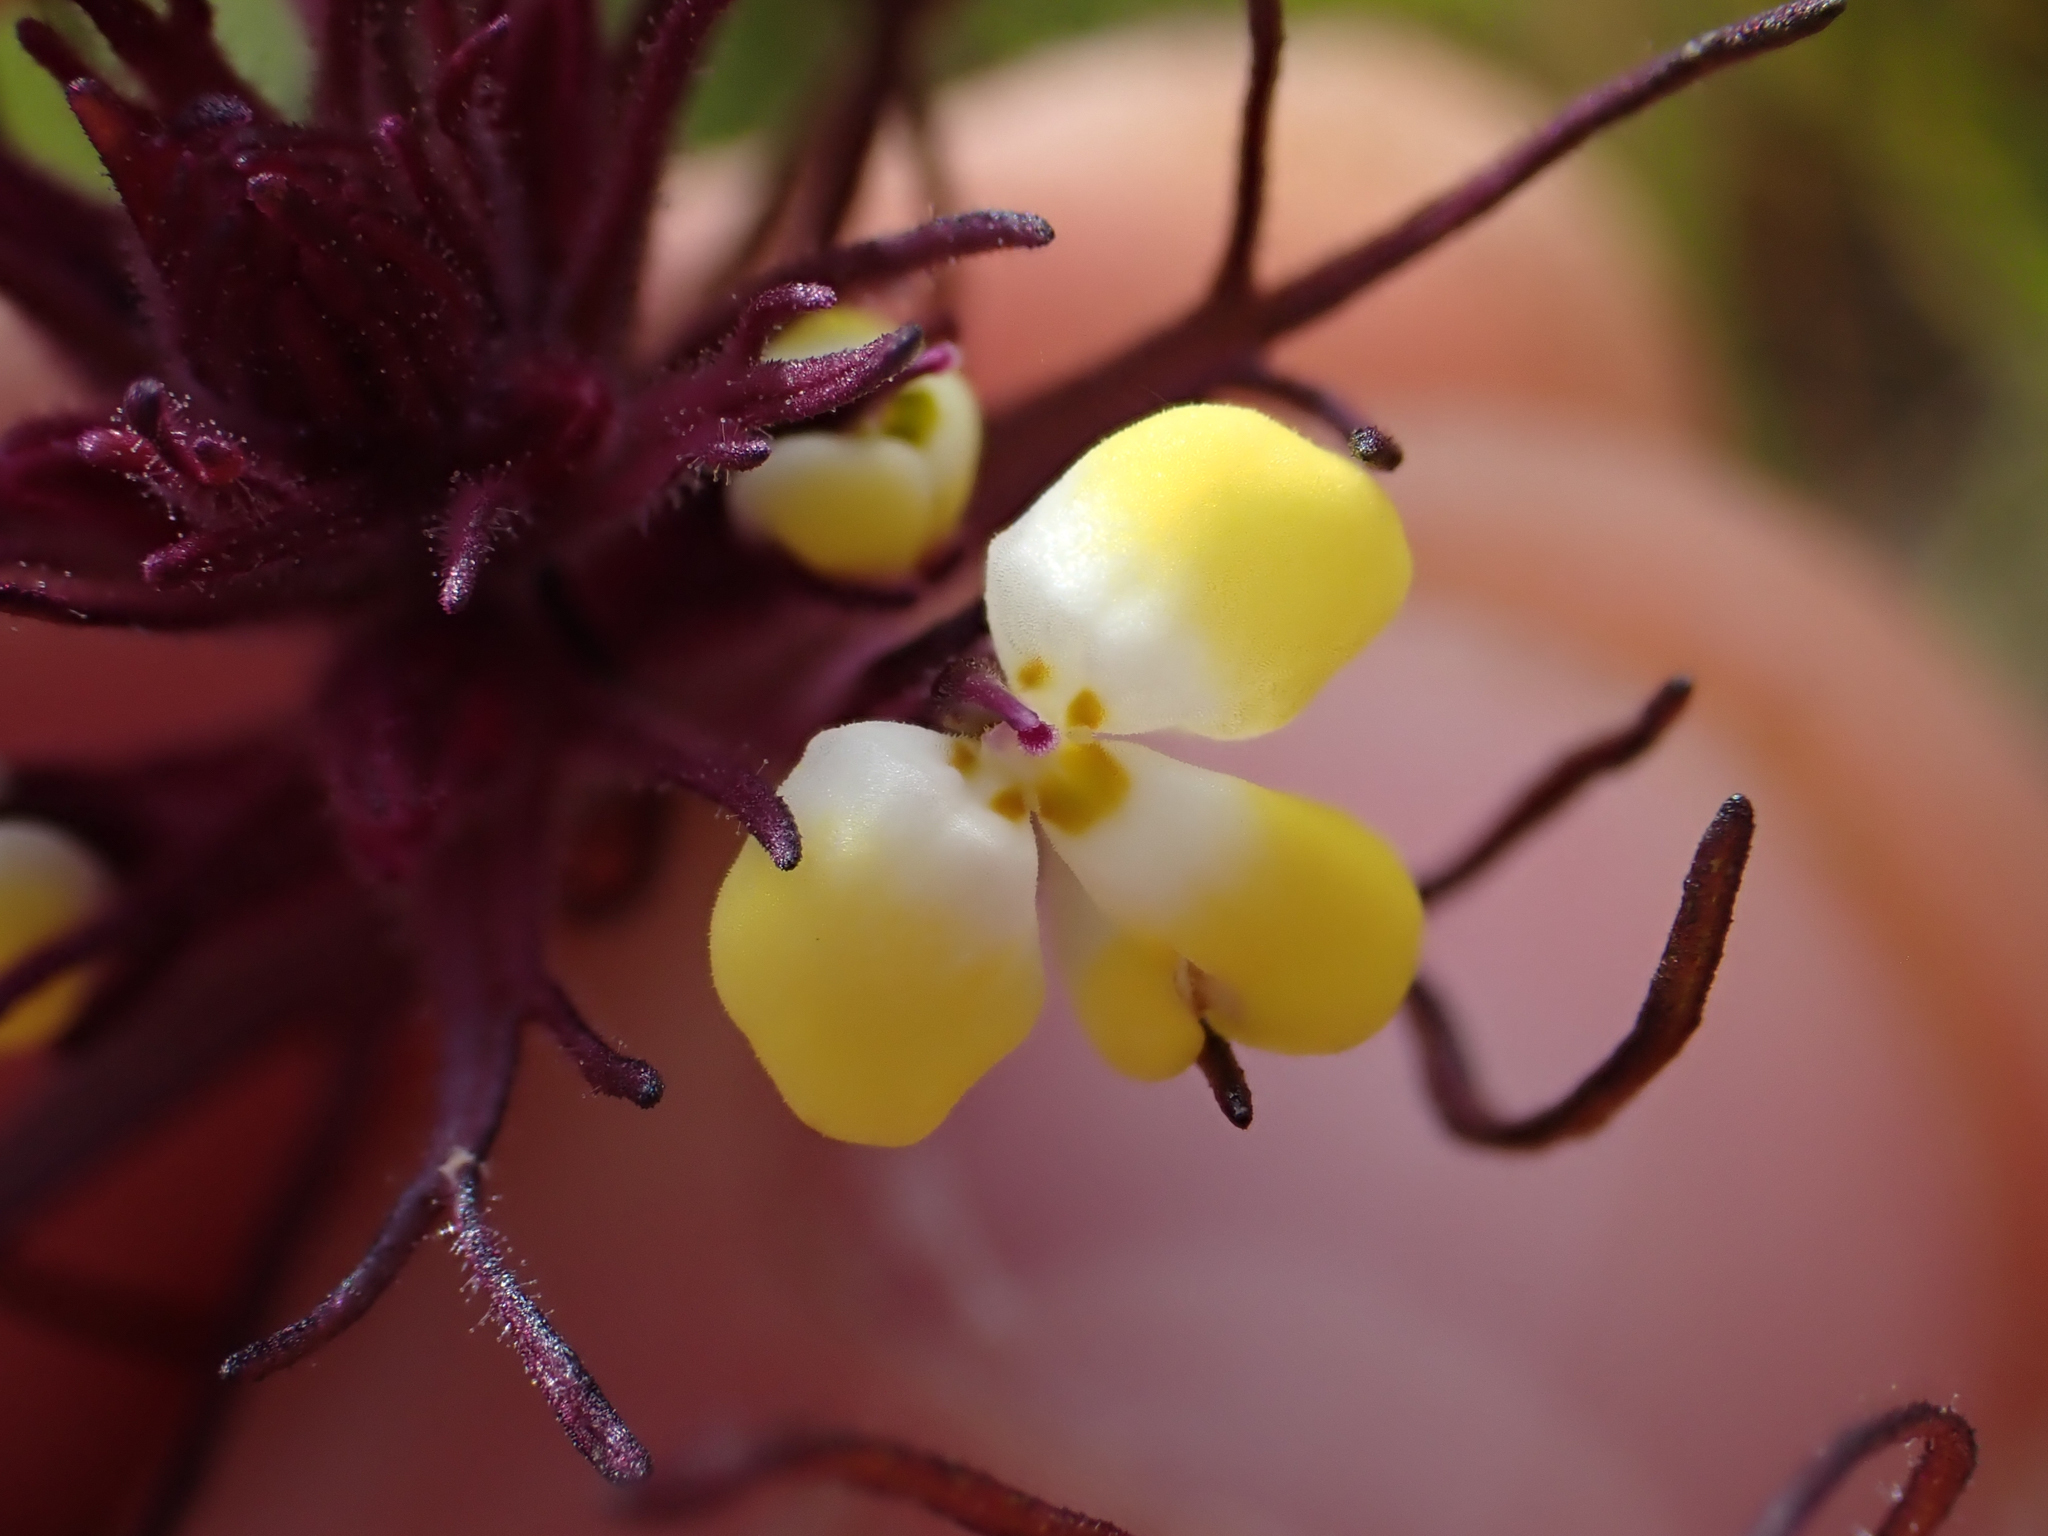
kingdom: Plantae
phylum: Tracheophyta
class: Magnoliopsida
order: Lamiales
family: Orobanchaceae
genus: Triphysaria
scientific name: Triphysaria eriantha
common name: Johnny-tuck
